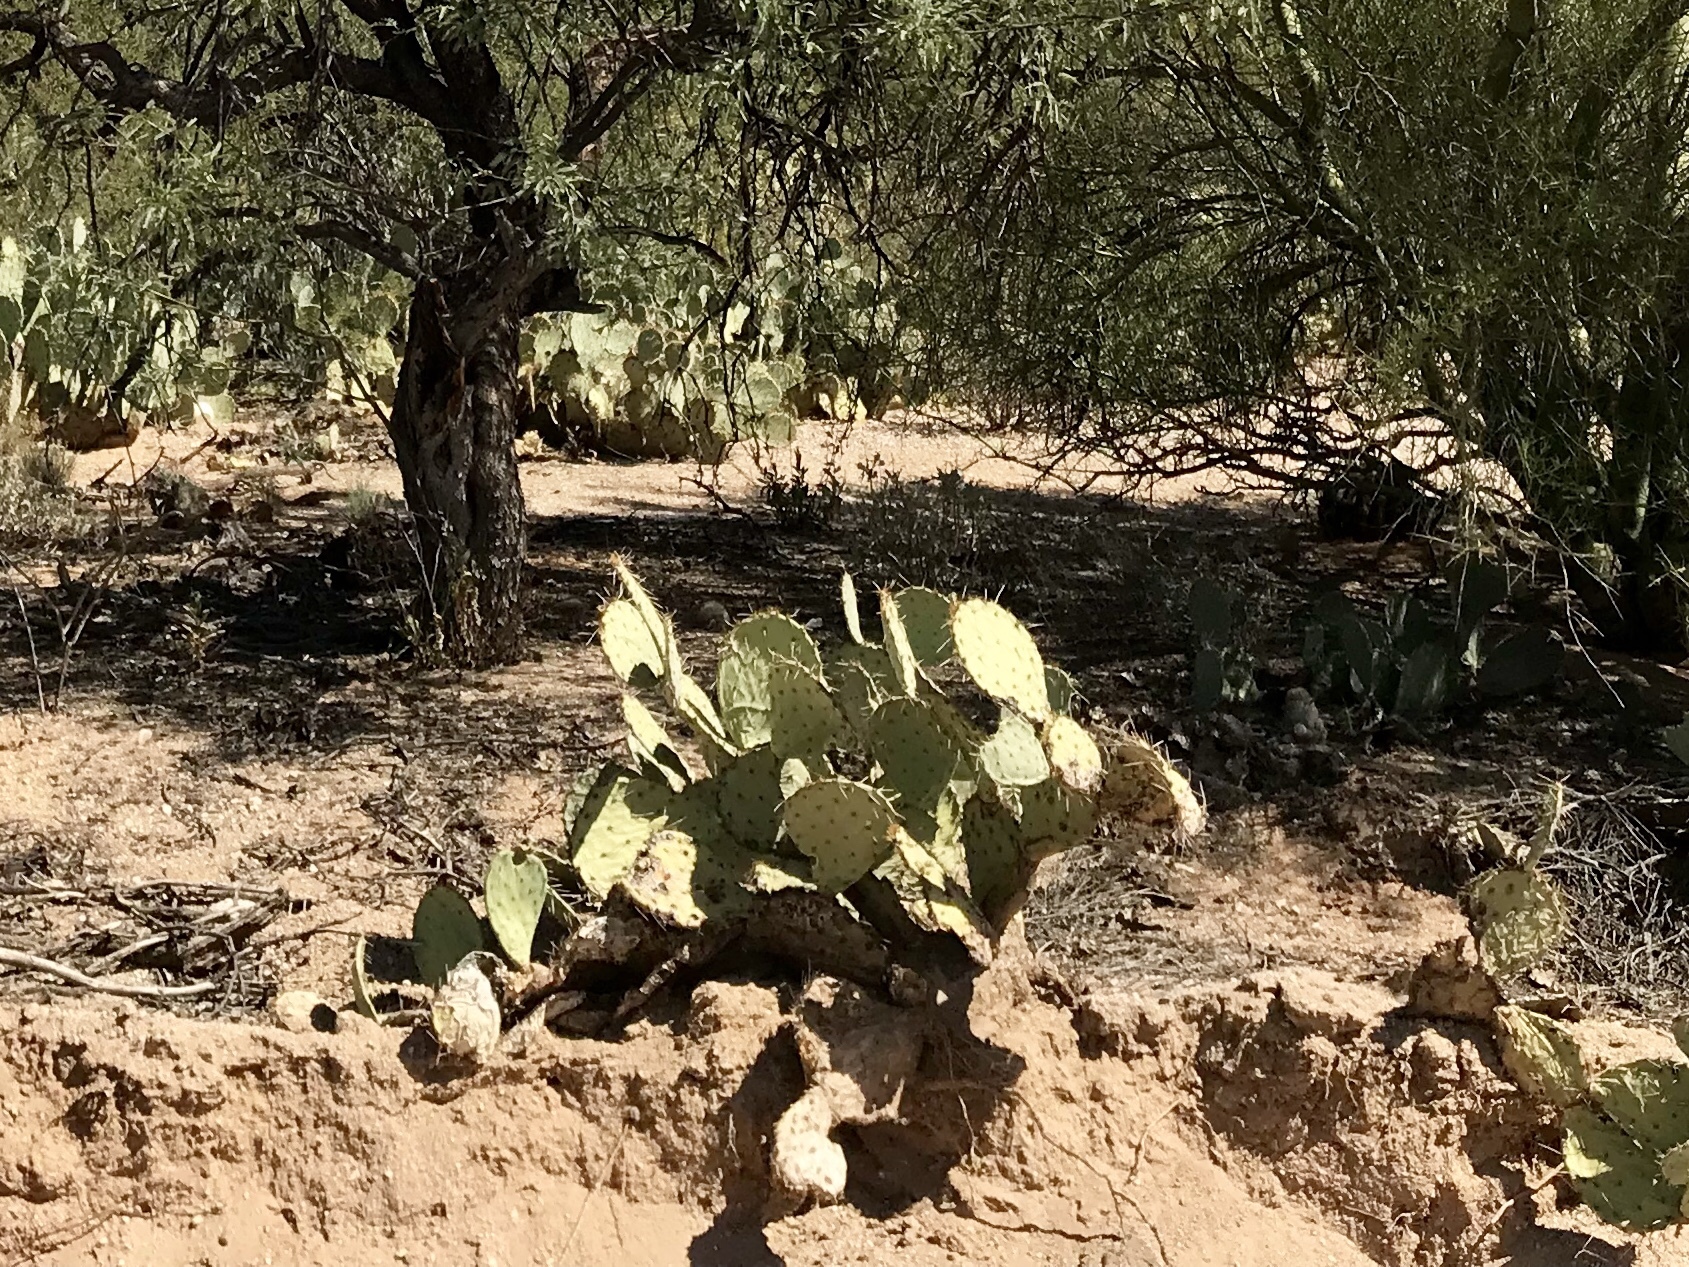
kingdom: Plantae
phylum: Tracheophyta
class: Magnoliopsida
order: Caryophyllales
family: Cactaceae
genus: Opuntia
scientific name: Opuntia engelmannii
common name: Cactus-apple
